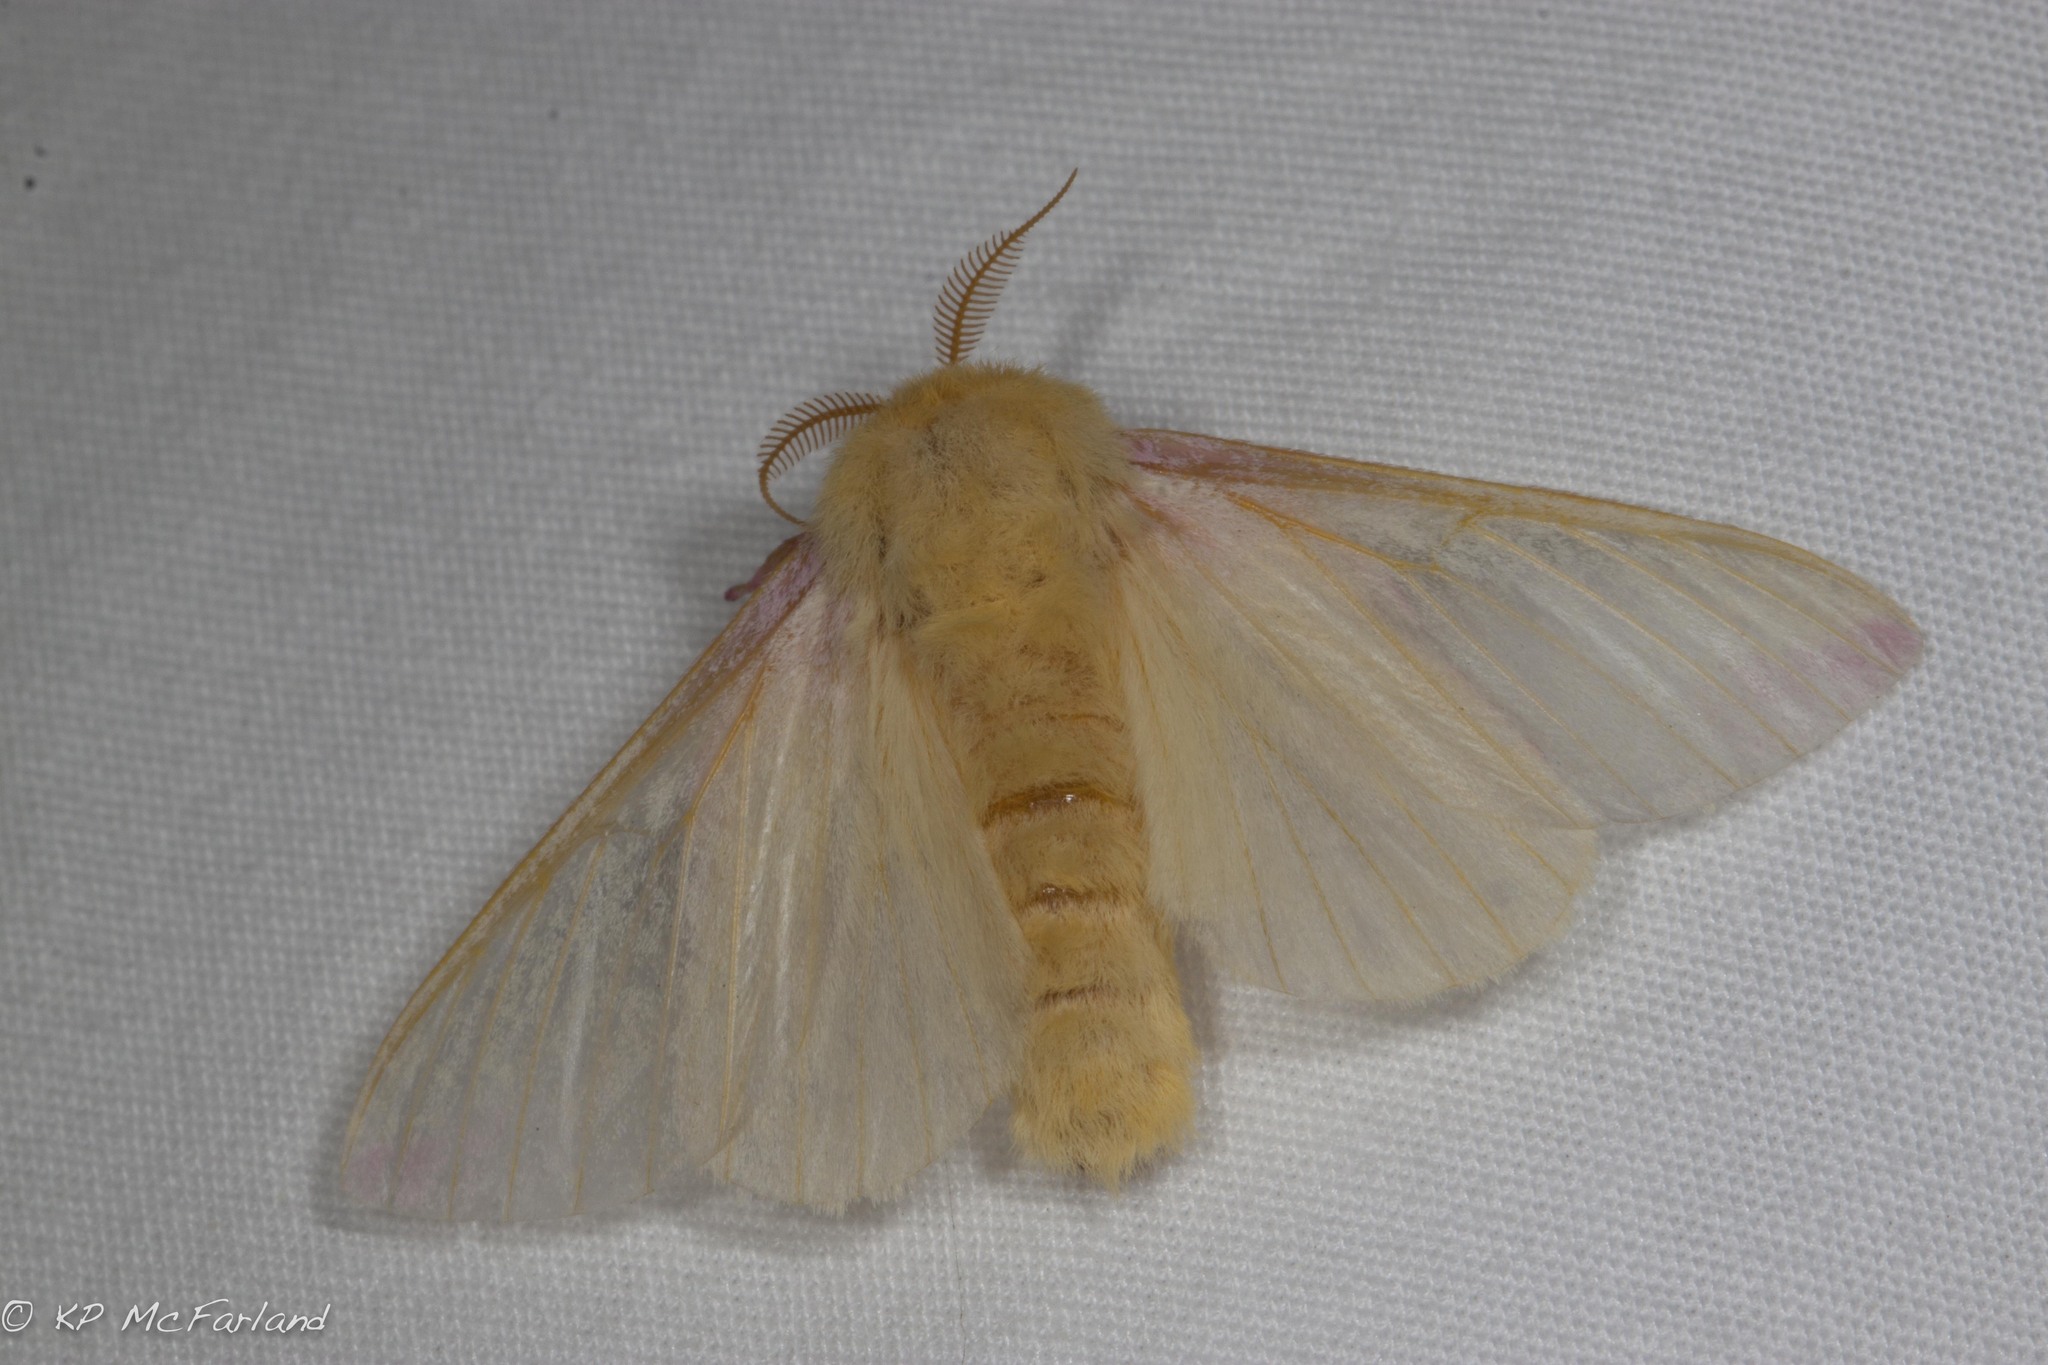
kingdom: Animalia
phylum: Arthropoda
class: Insecta
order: Lepidoptera
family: Saturniidae
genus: Dryocampa
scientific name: Dryocampa rubicunda
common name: Rosy maple moth
